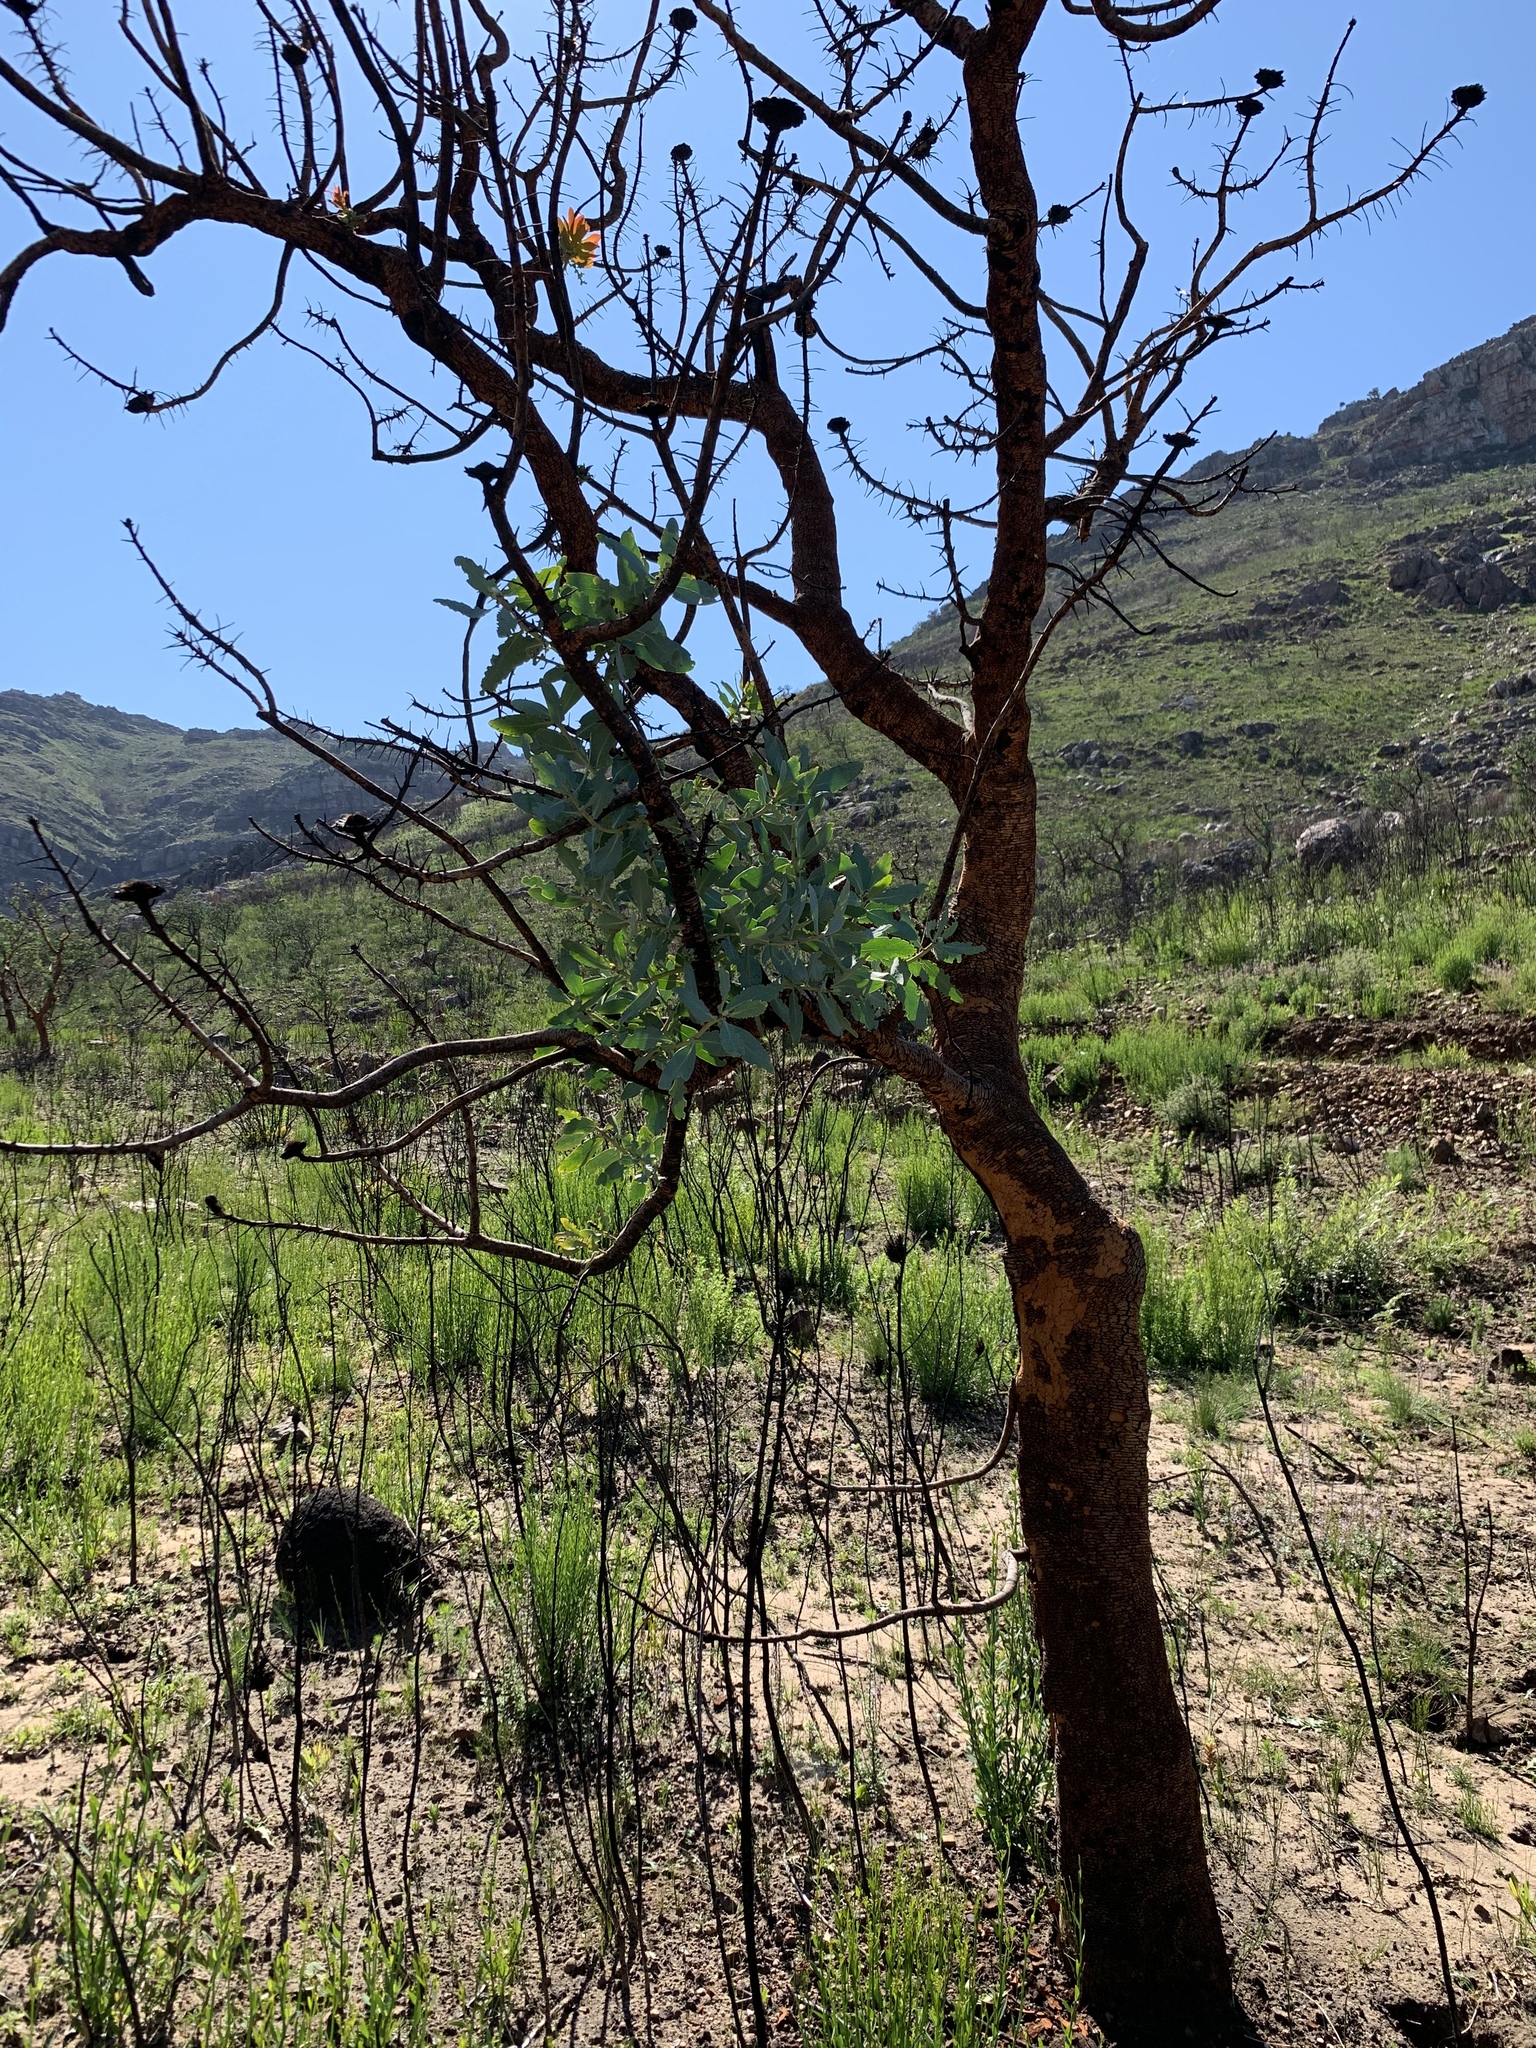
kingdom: Plantae
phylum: Tracheophyta
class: Magnoliopsida
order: Proteales
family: Proteaceae
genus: Protea
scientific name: Protea nitida
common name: Tree protea
